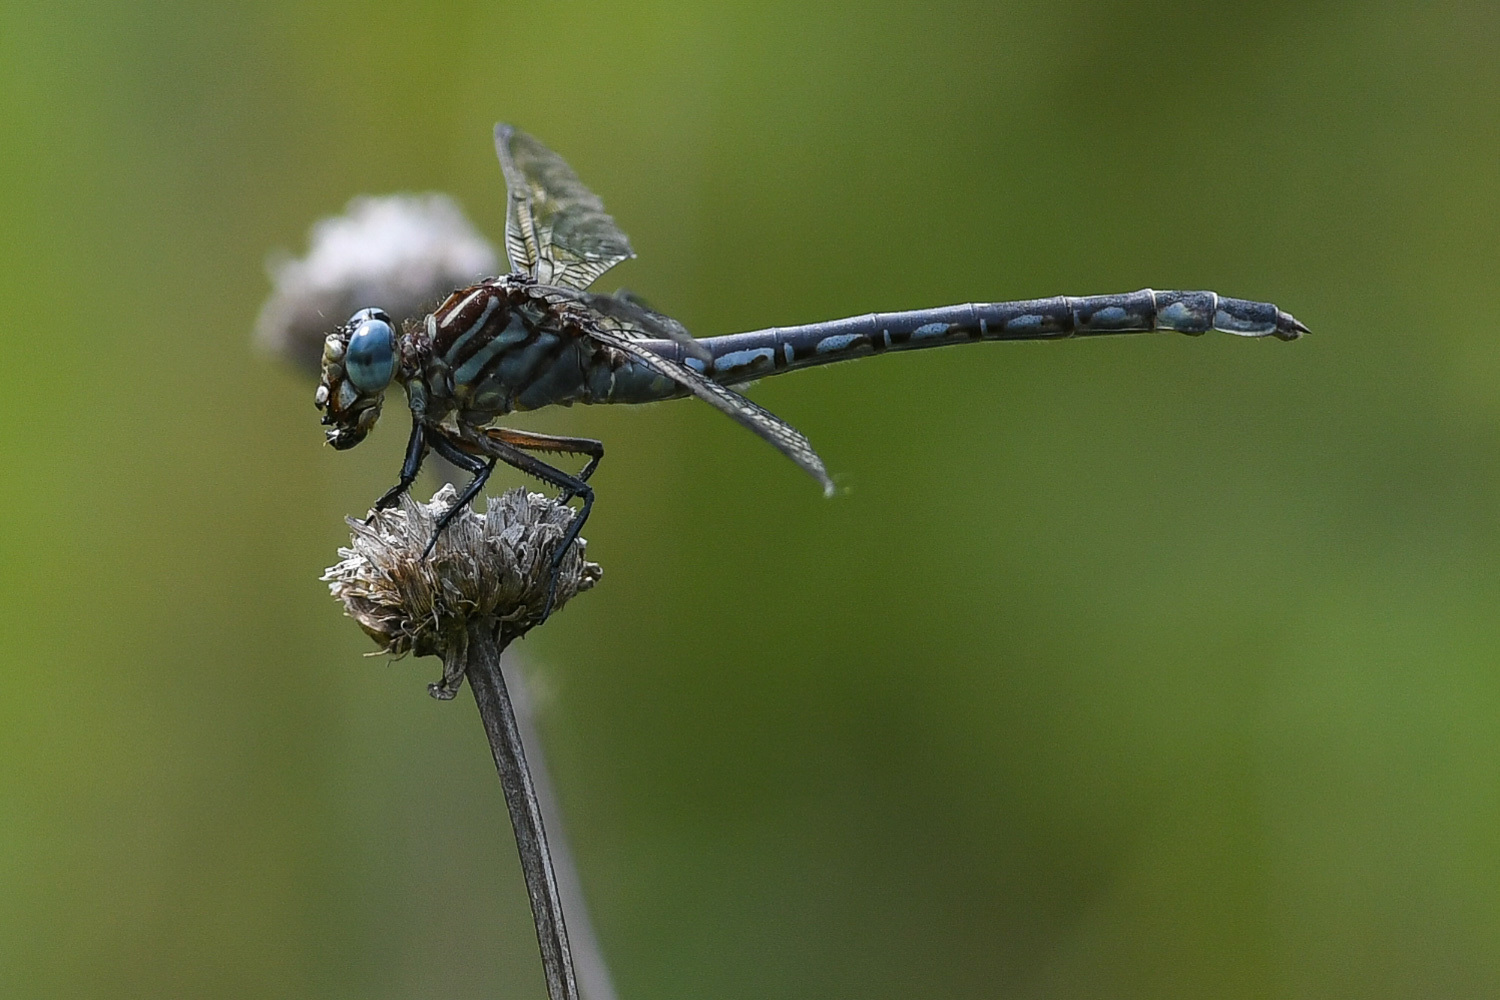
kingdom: Animalia
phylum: Arthropoda
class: Insecta
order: Odonata
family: Gomphidae
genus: Stylurus
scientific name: Stylurus notatus
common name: Elusive clubtail
